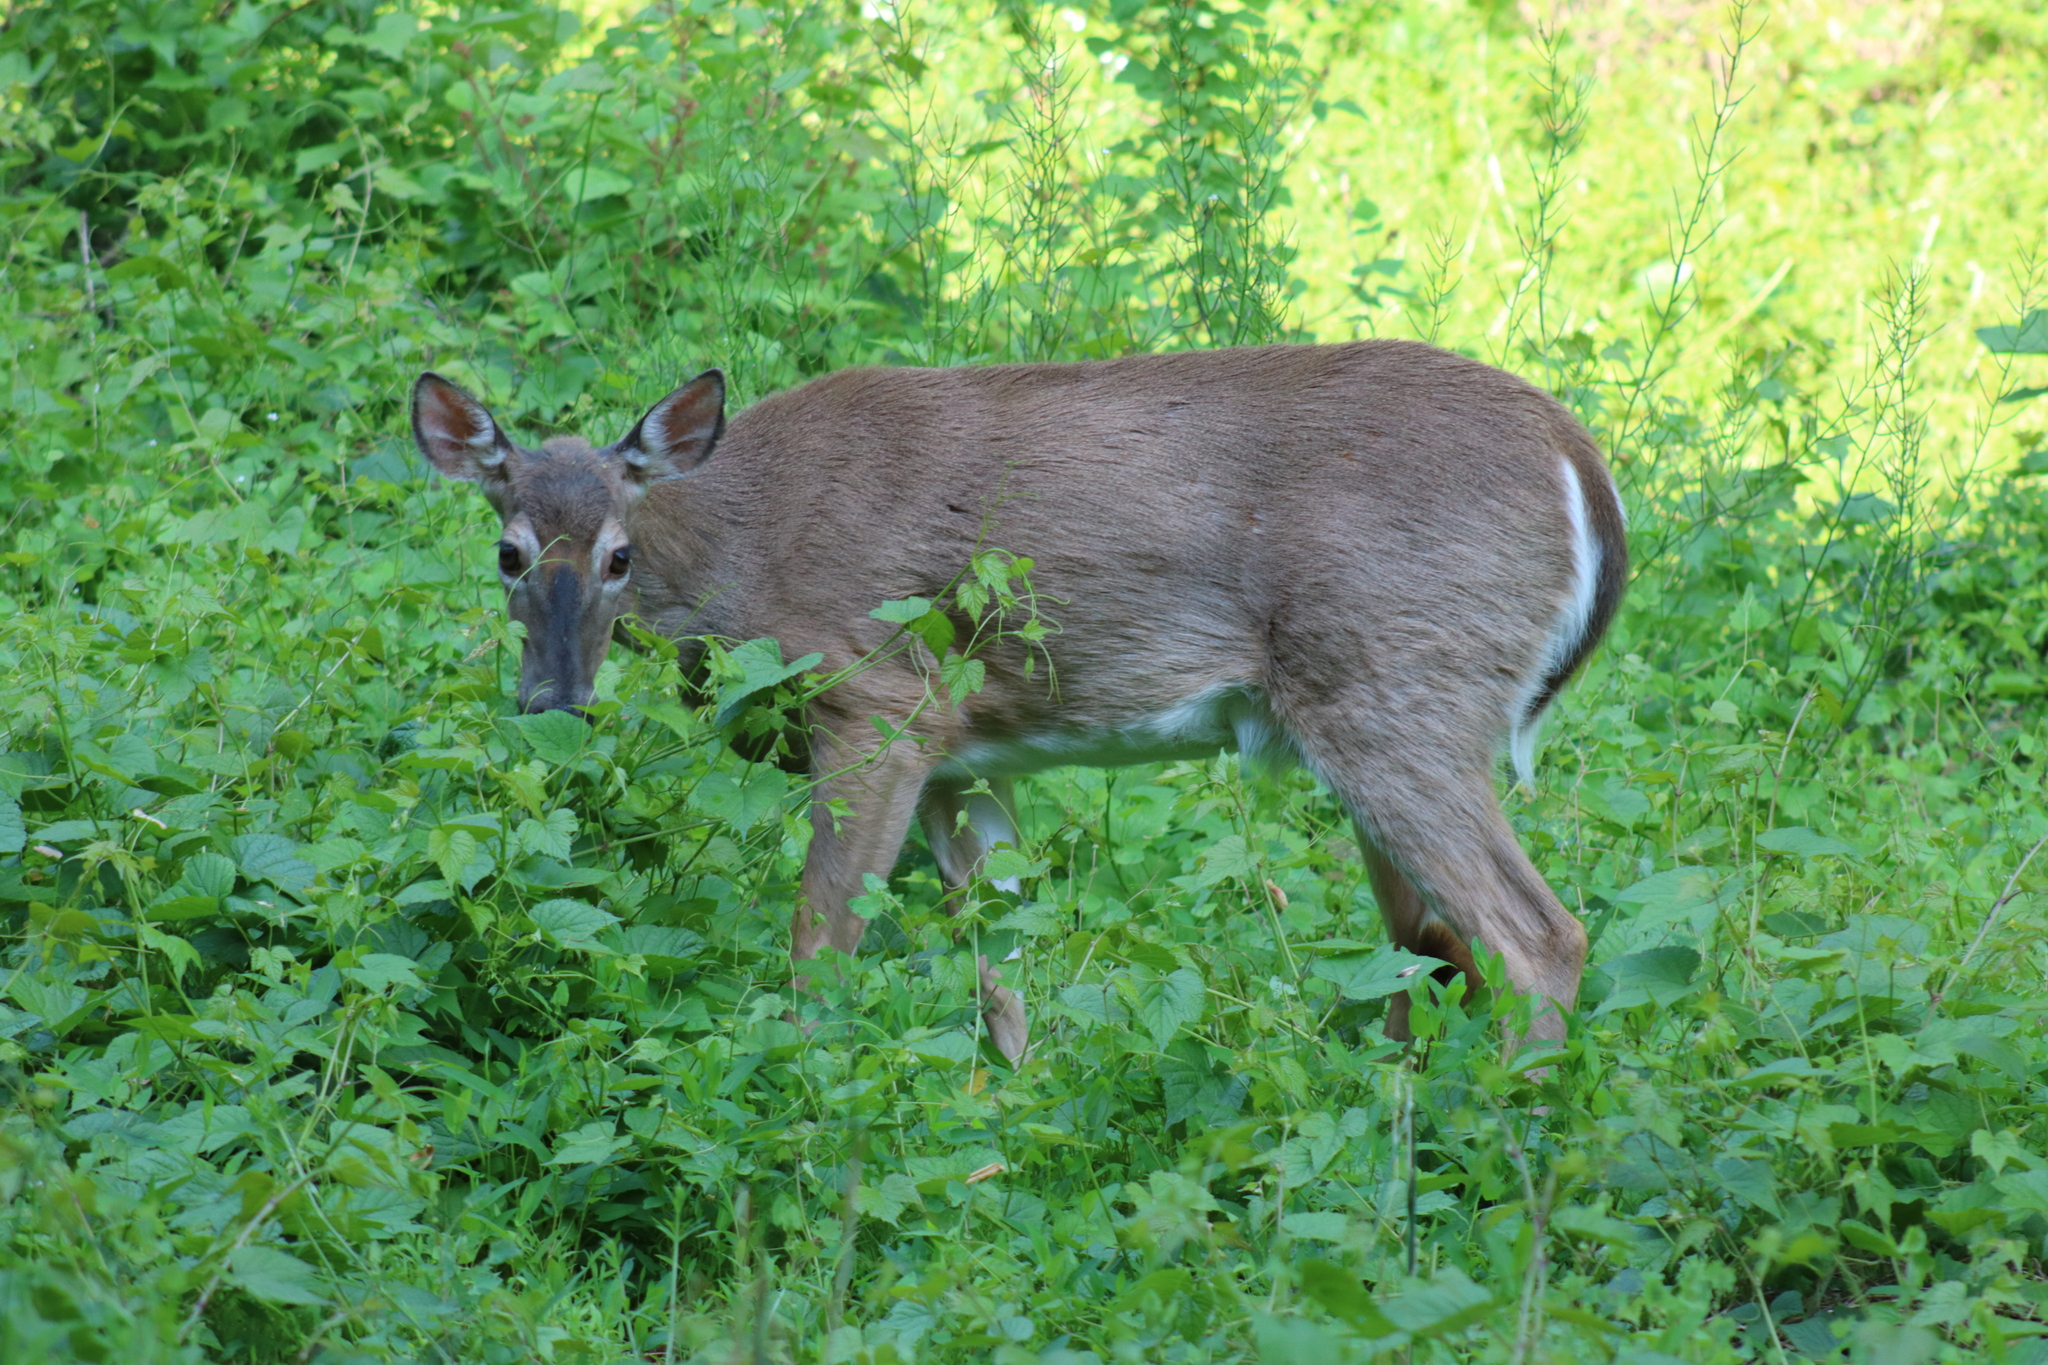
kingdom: Animalia
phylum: Chordata
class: Mammalia
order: Artiodactyla
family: Cervidae
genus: Odocoileus
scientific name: Odocoileus virginianus
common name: White-tailed deer
